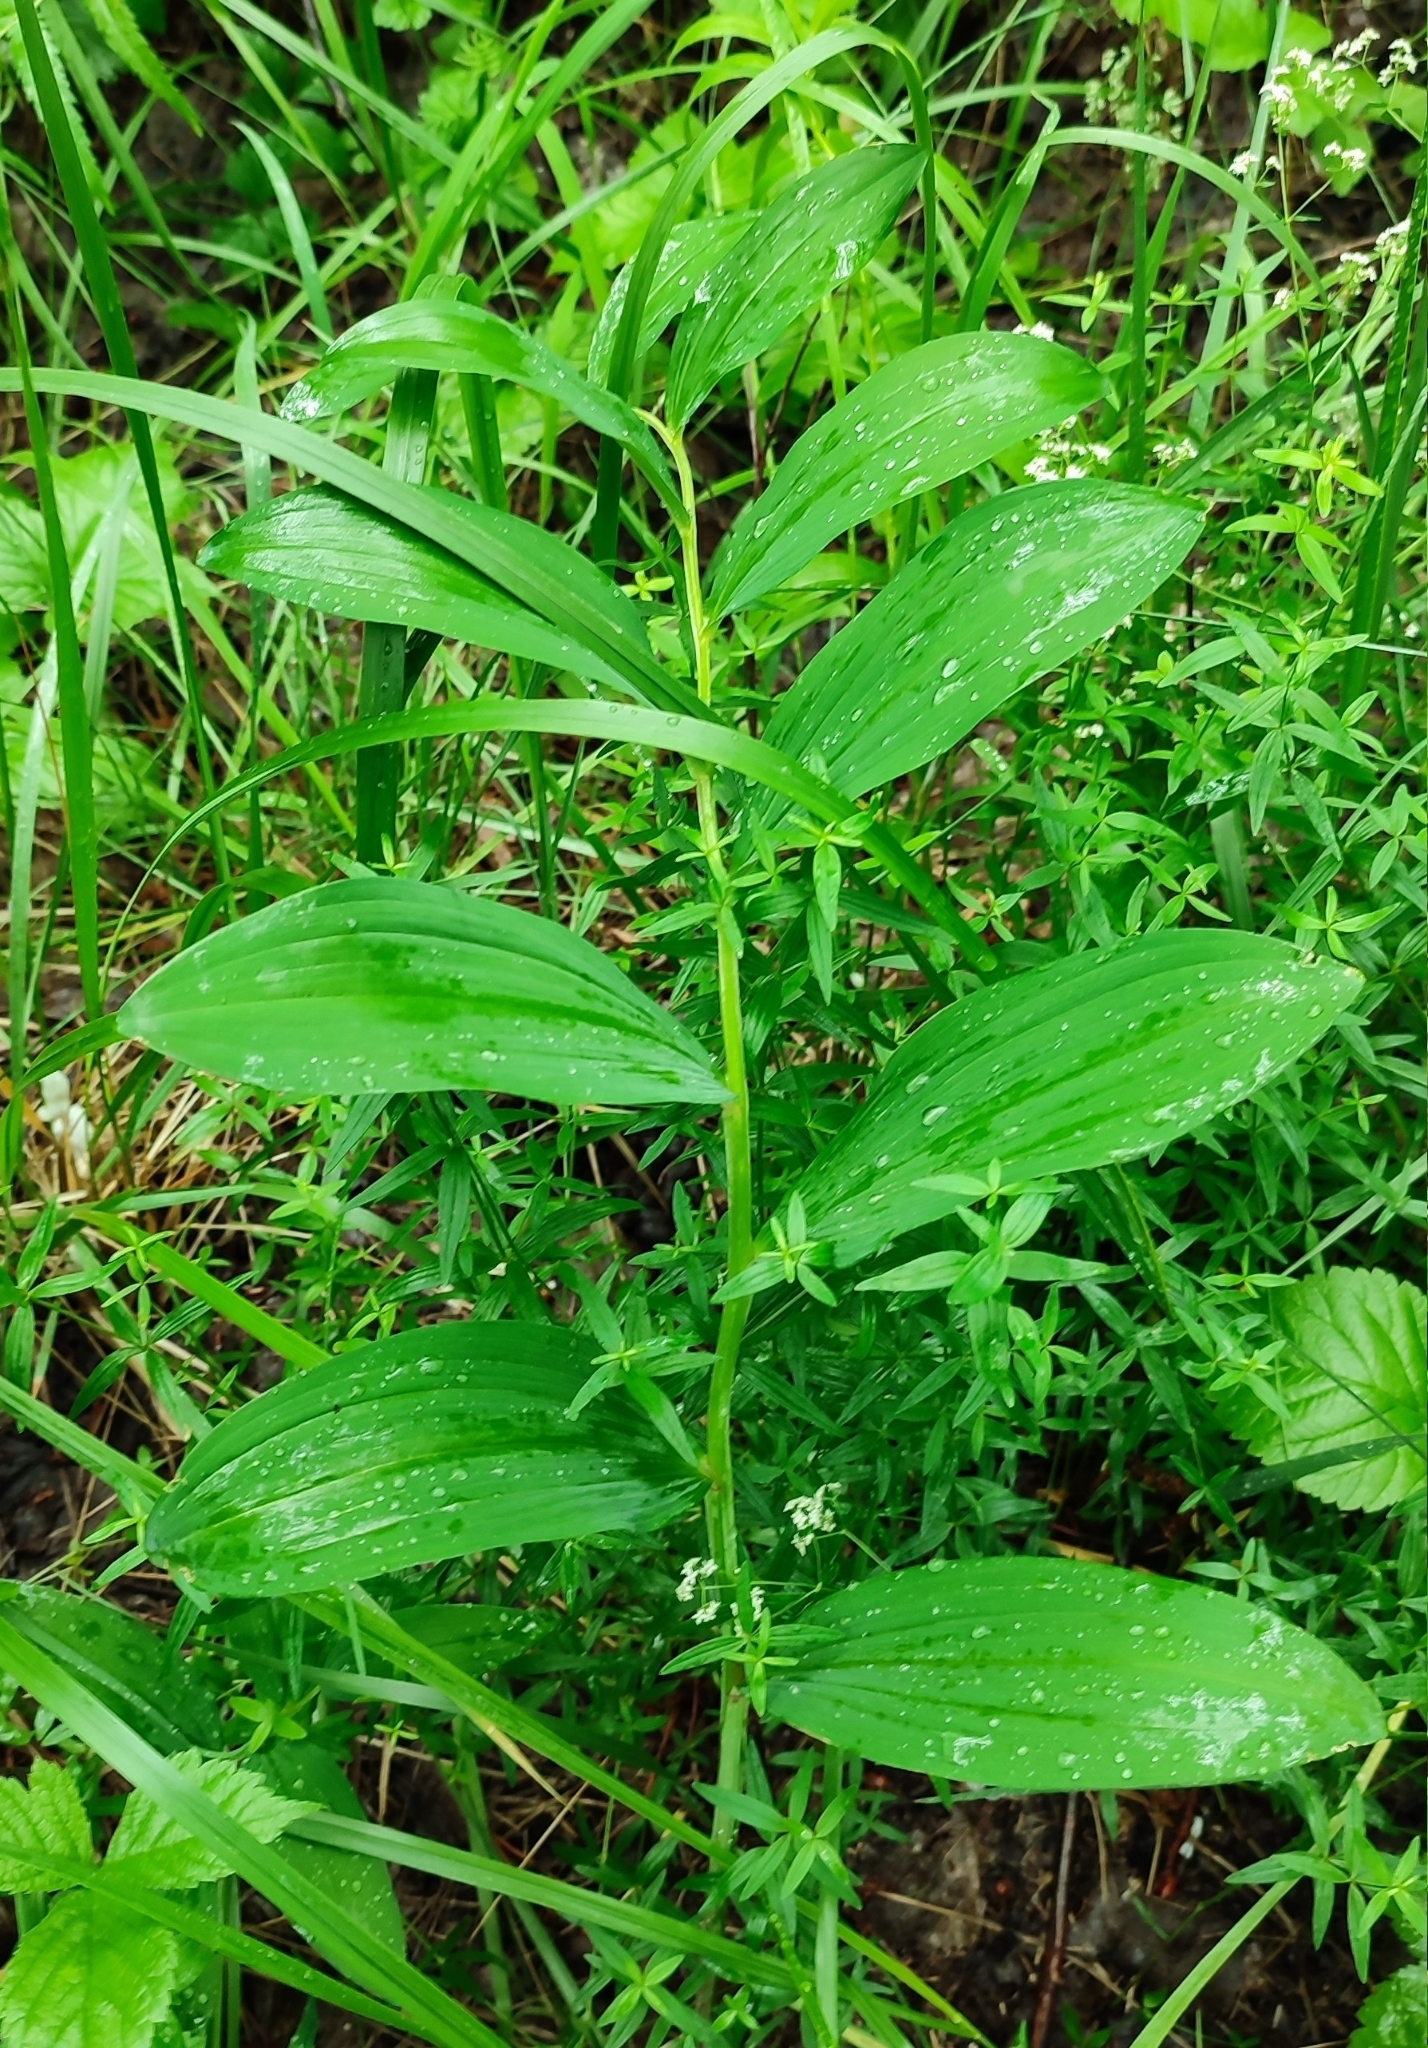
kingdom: Plantae
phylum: Tracheophyta
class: Liliopsida
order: Asparagales
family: Asparagaceae
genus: Polygonatum
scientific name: Polygonatum odoratum
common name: Angular solomon's-seal
